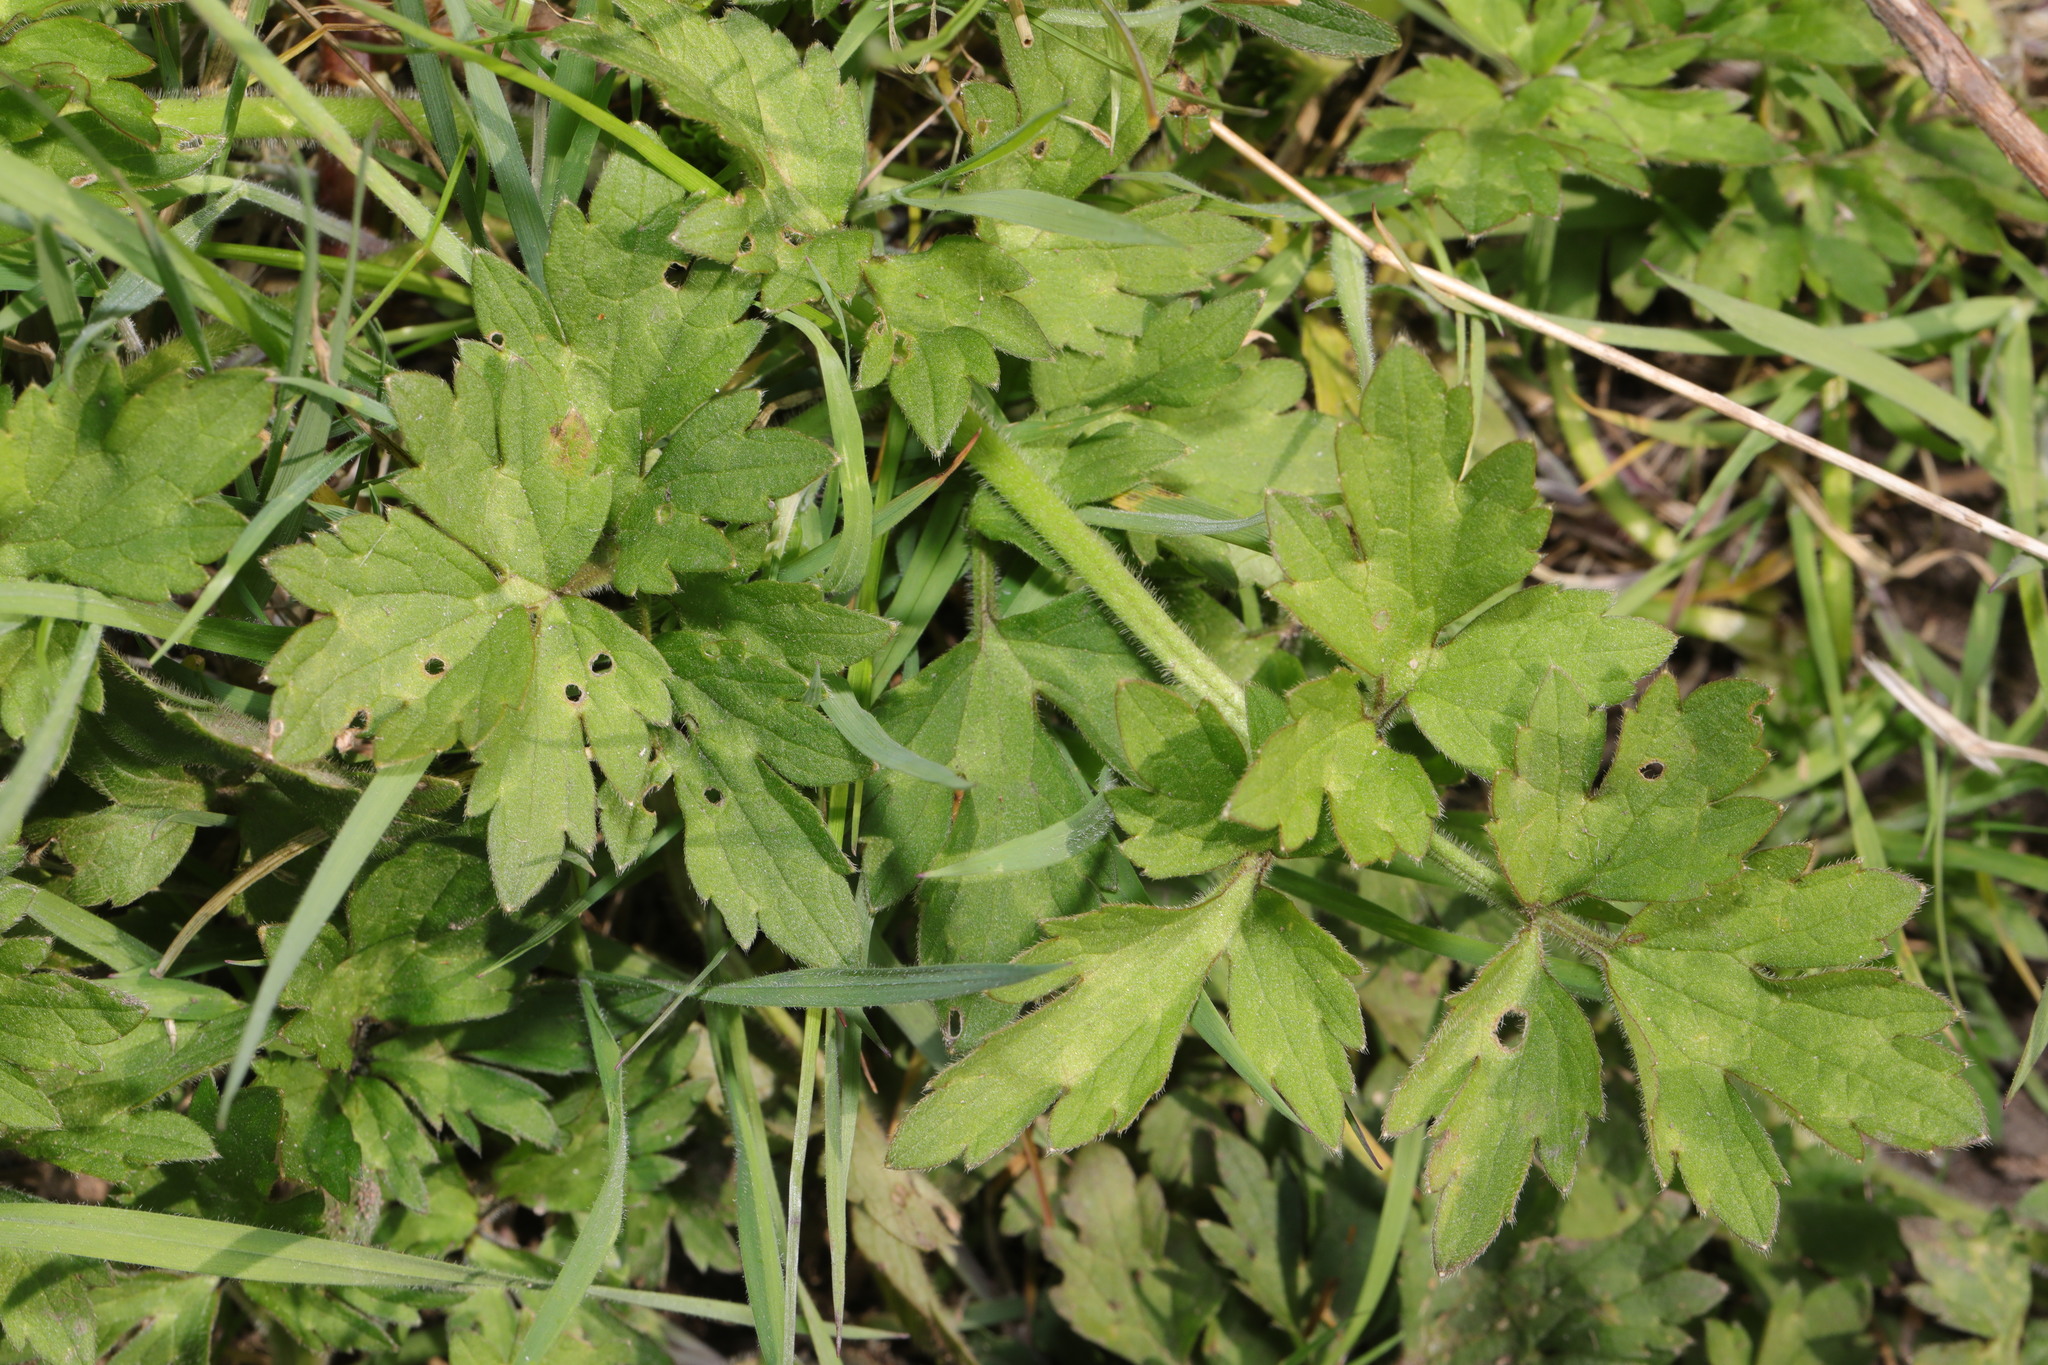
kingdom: Plantae
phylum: Tracheophyta
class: Magnoliopsida
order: Ranunculales
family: Ranunculaceae
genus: Ranunculus
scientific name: Ranunculus repens
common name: Creeping buttercup
